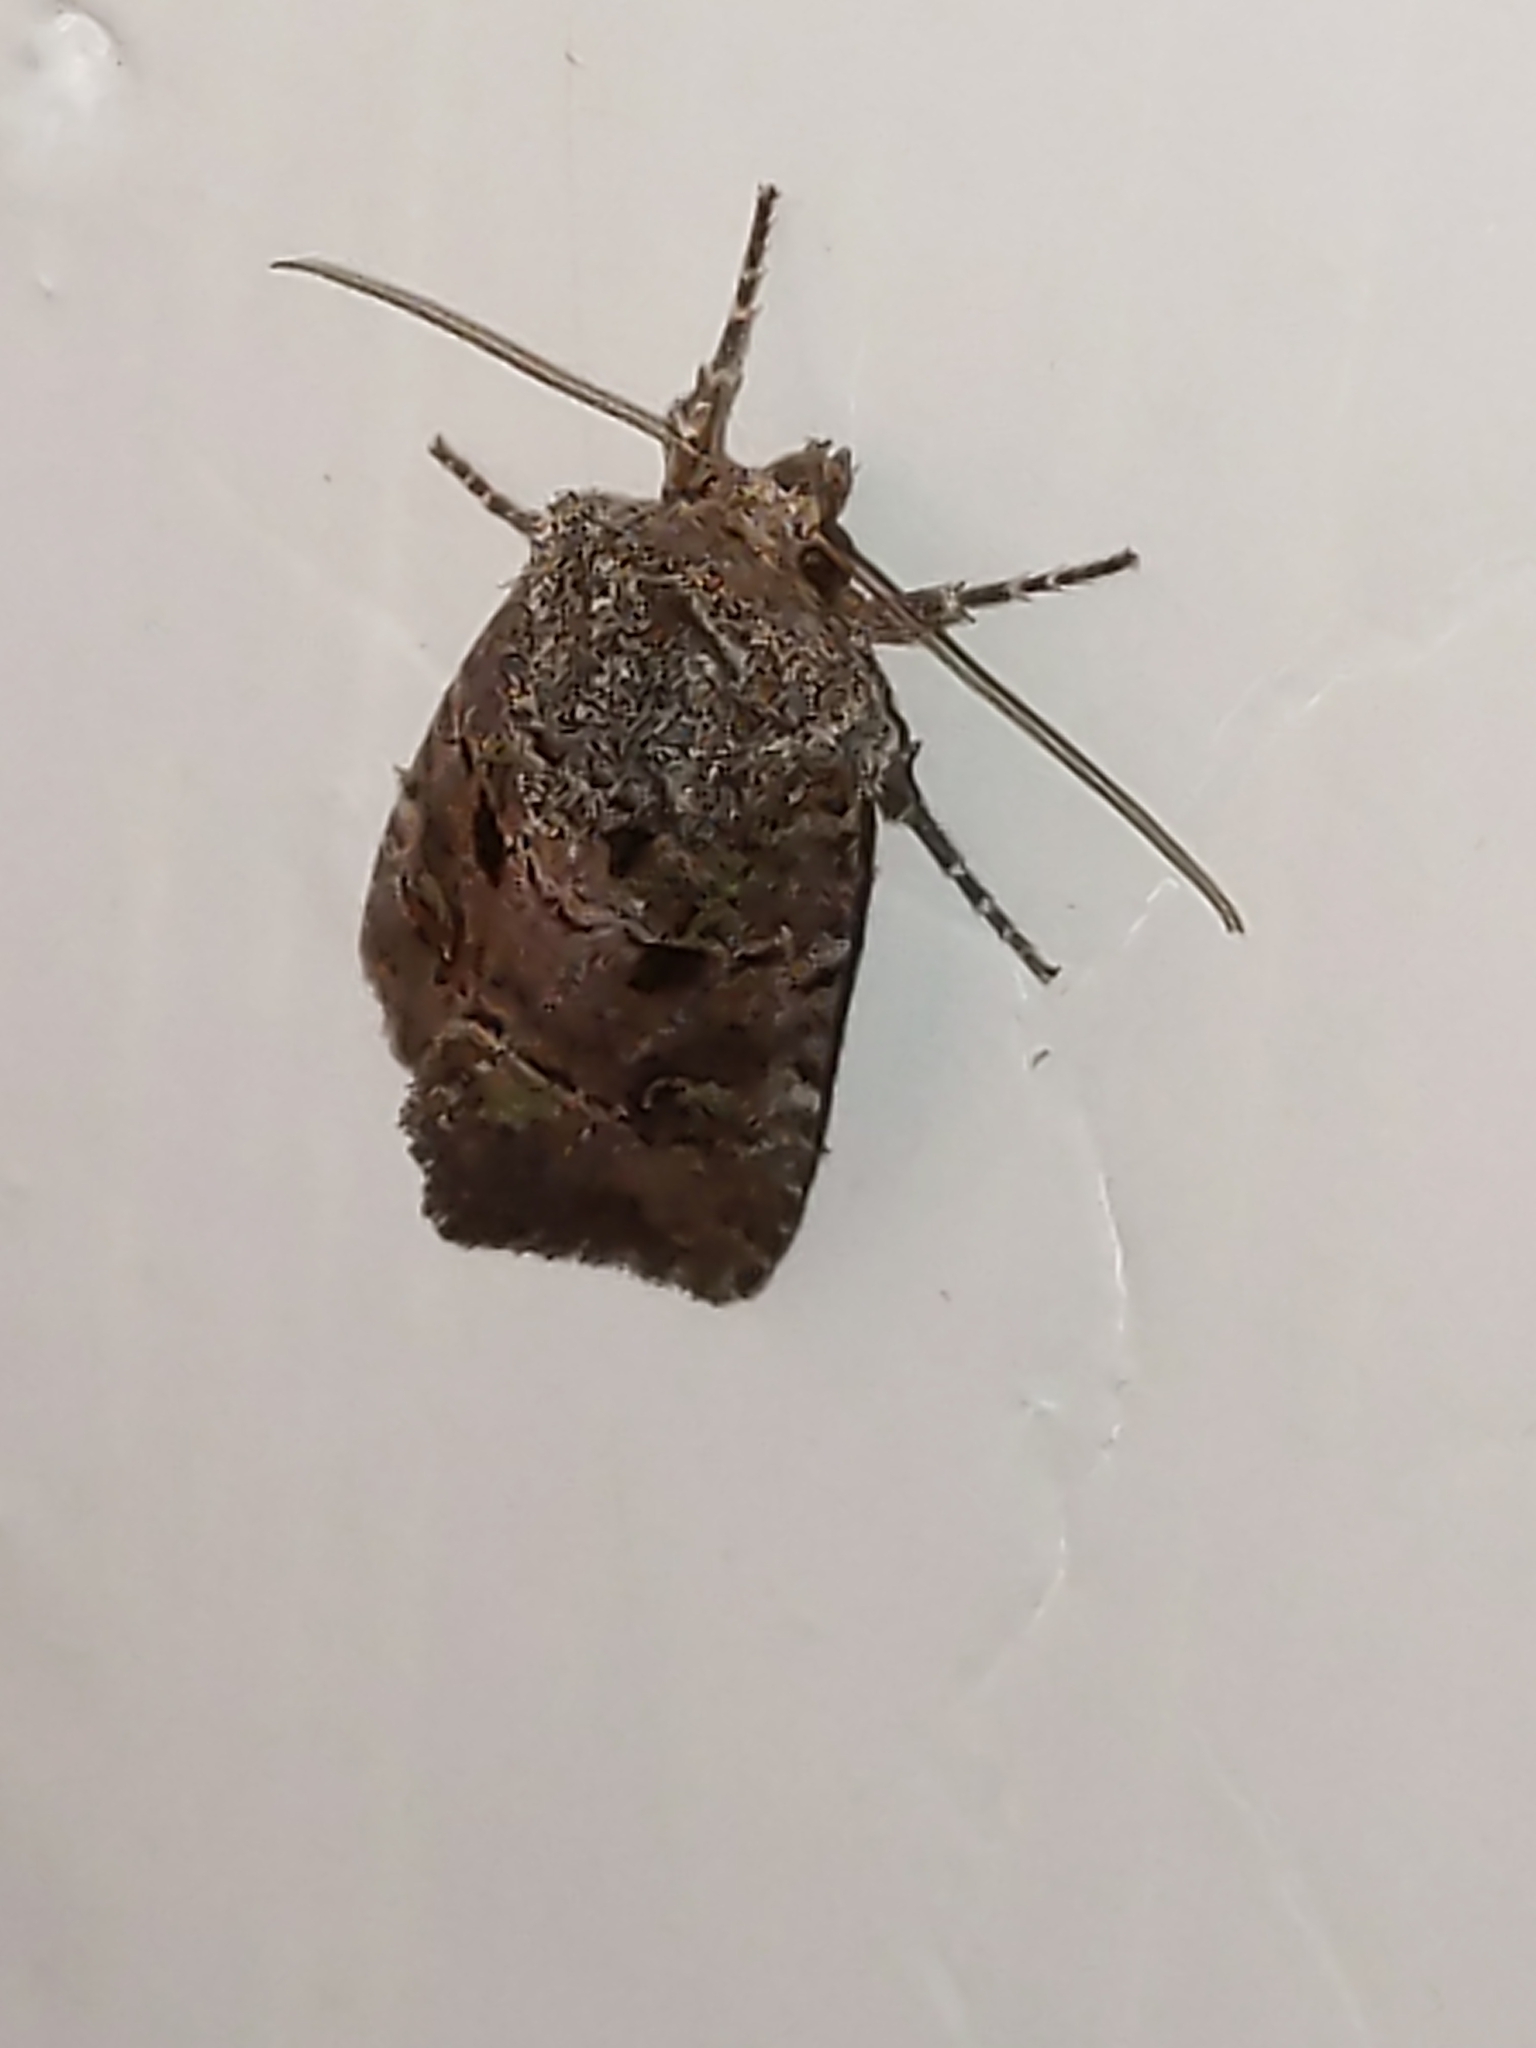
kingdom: Animalia
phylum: Arthropoda
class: Insecta
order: Lepidoptera
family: Noctuidae
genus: Lacinipolia
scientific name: Lacinipolia renigera
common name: Kidney-spotted minor
